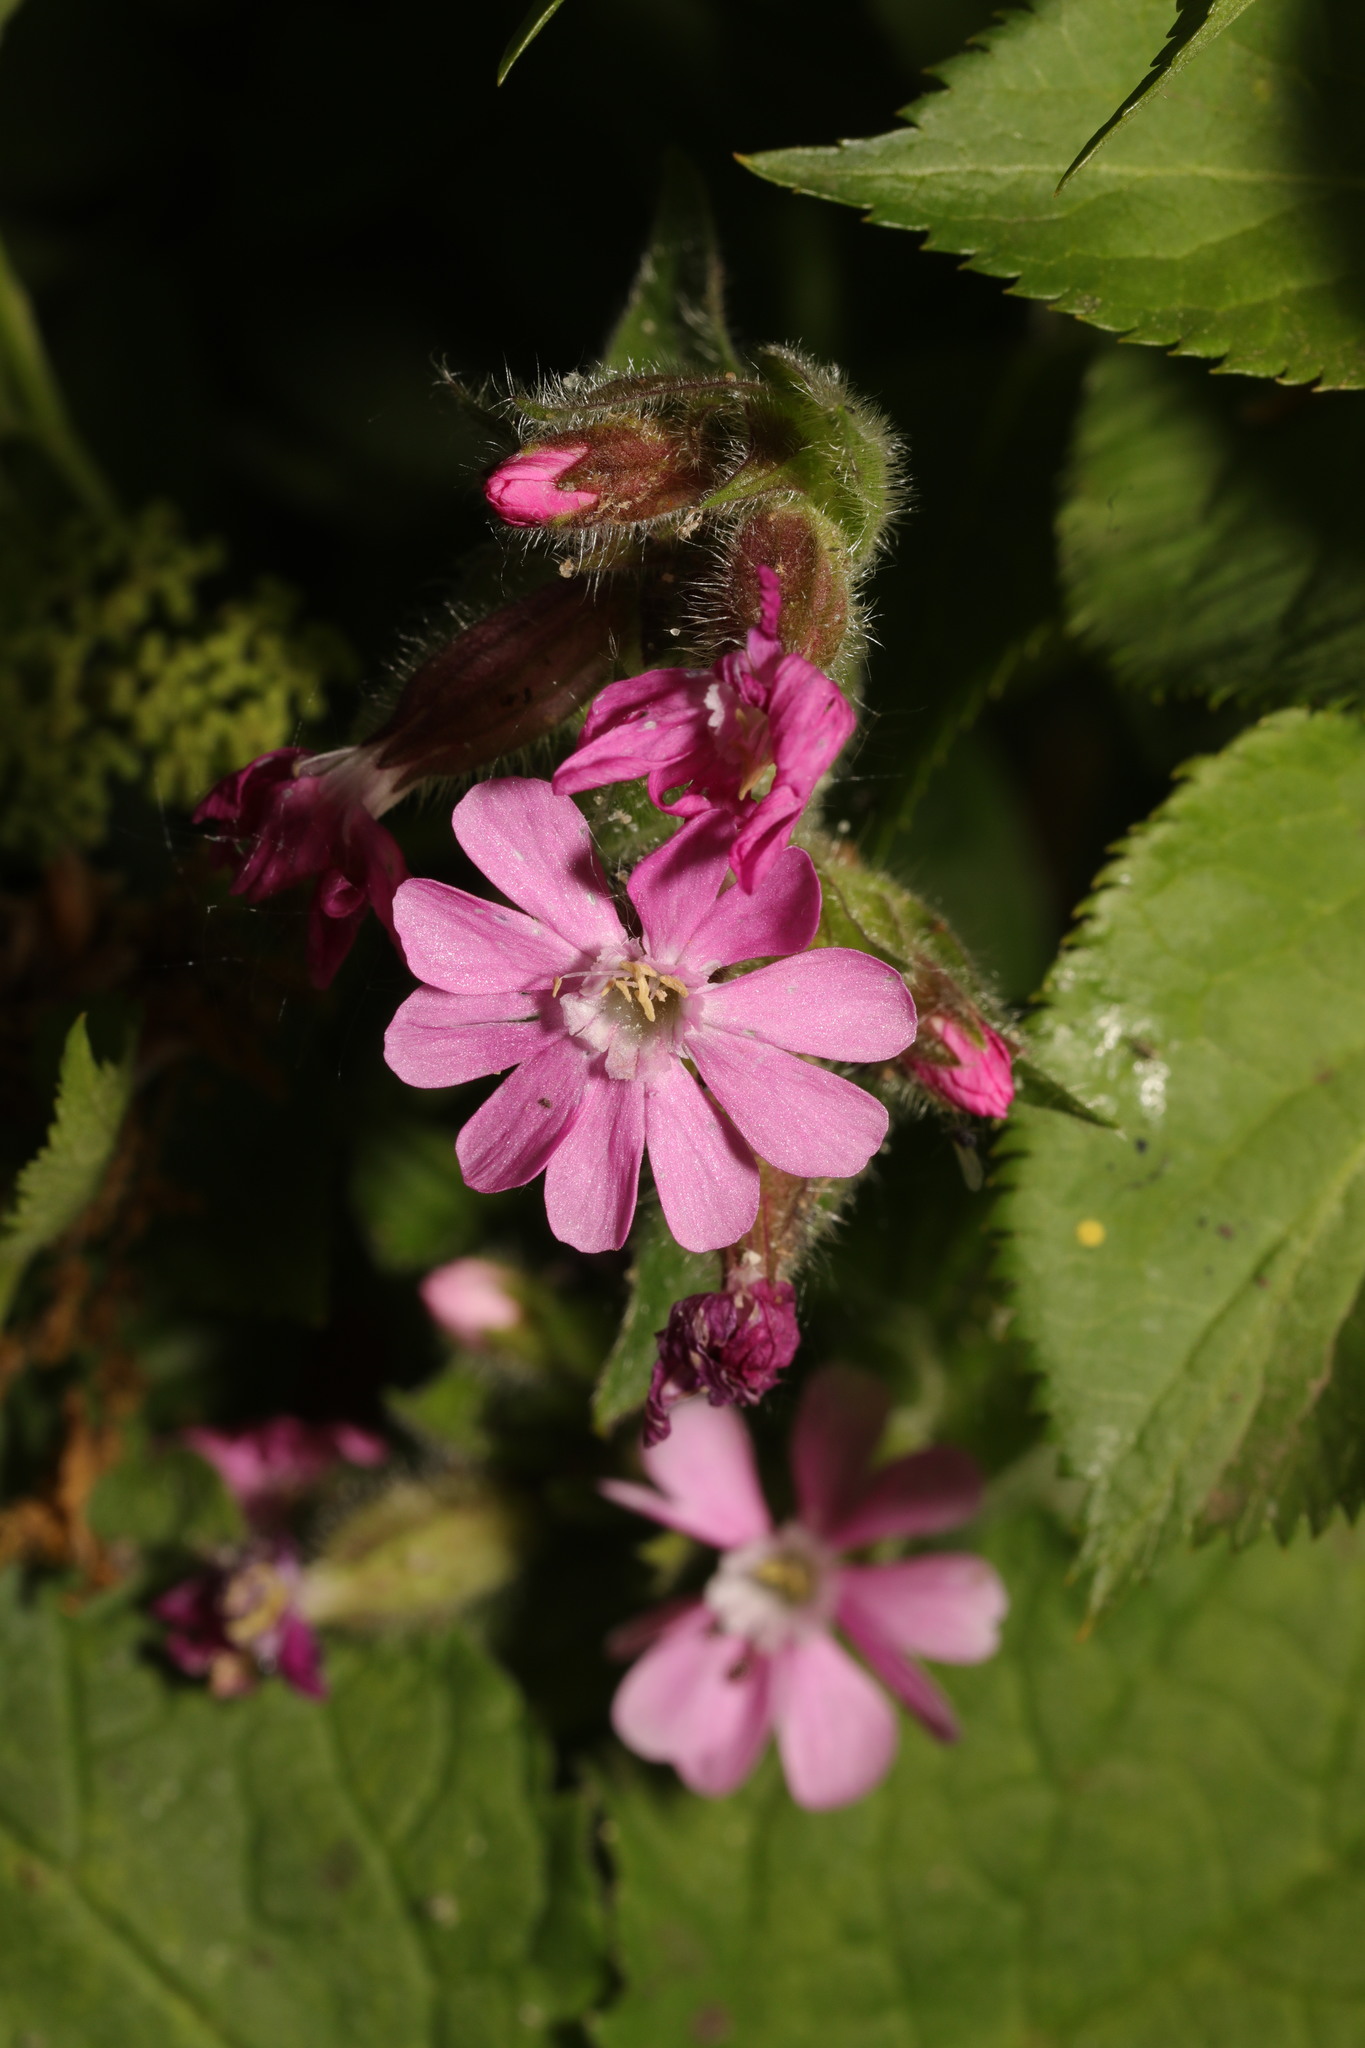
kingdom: Plantae
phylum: Tracheophyta
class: Magnoliopsida
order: Caryophyllales
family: Caryophyllaceae
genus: Silene
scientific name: Silene dioica
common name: Red campion
